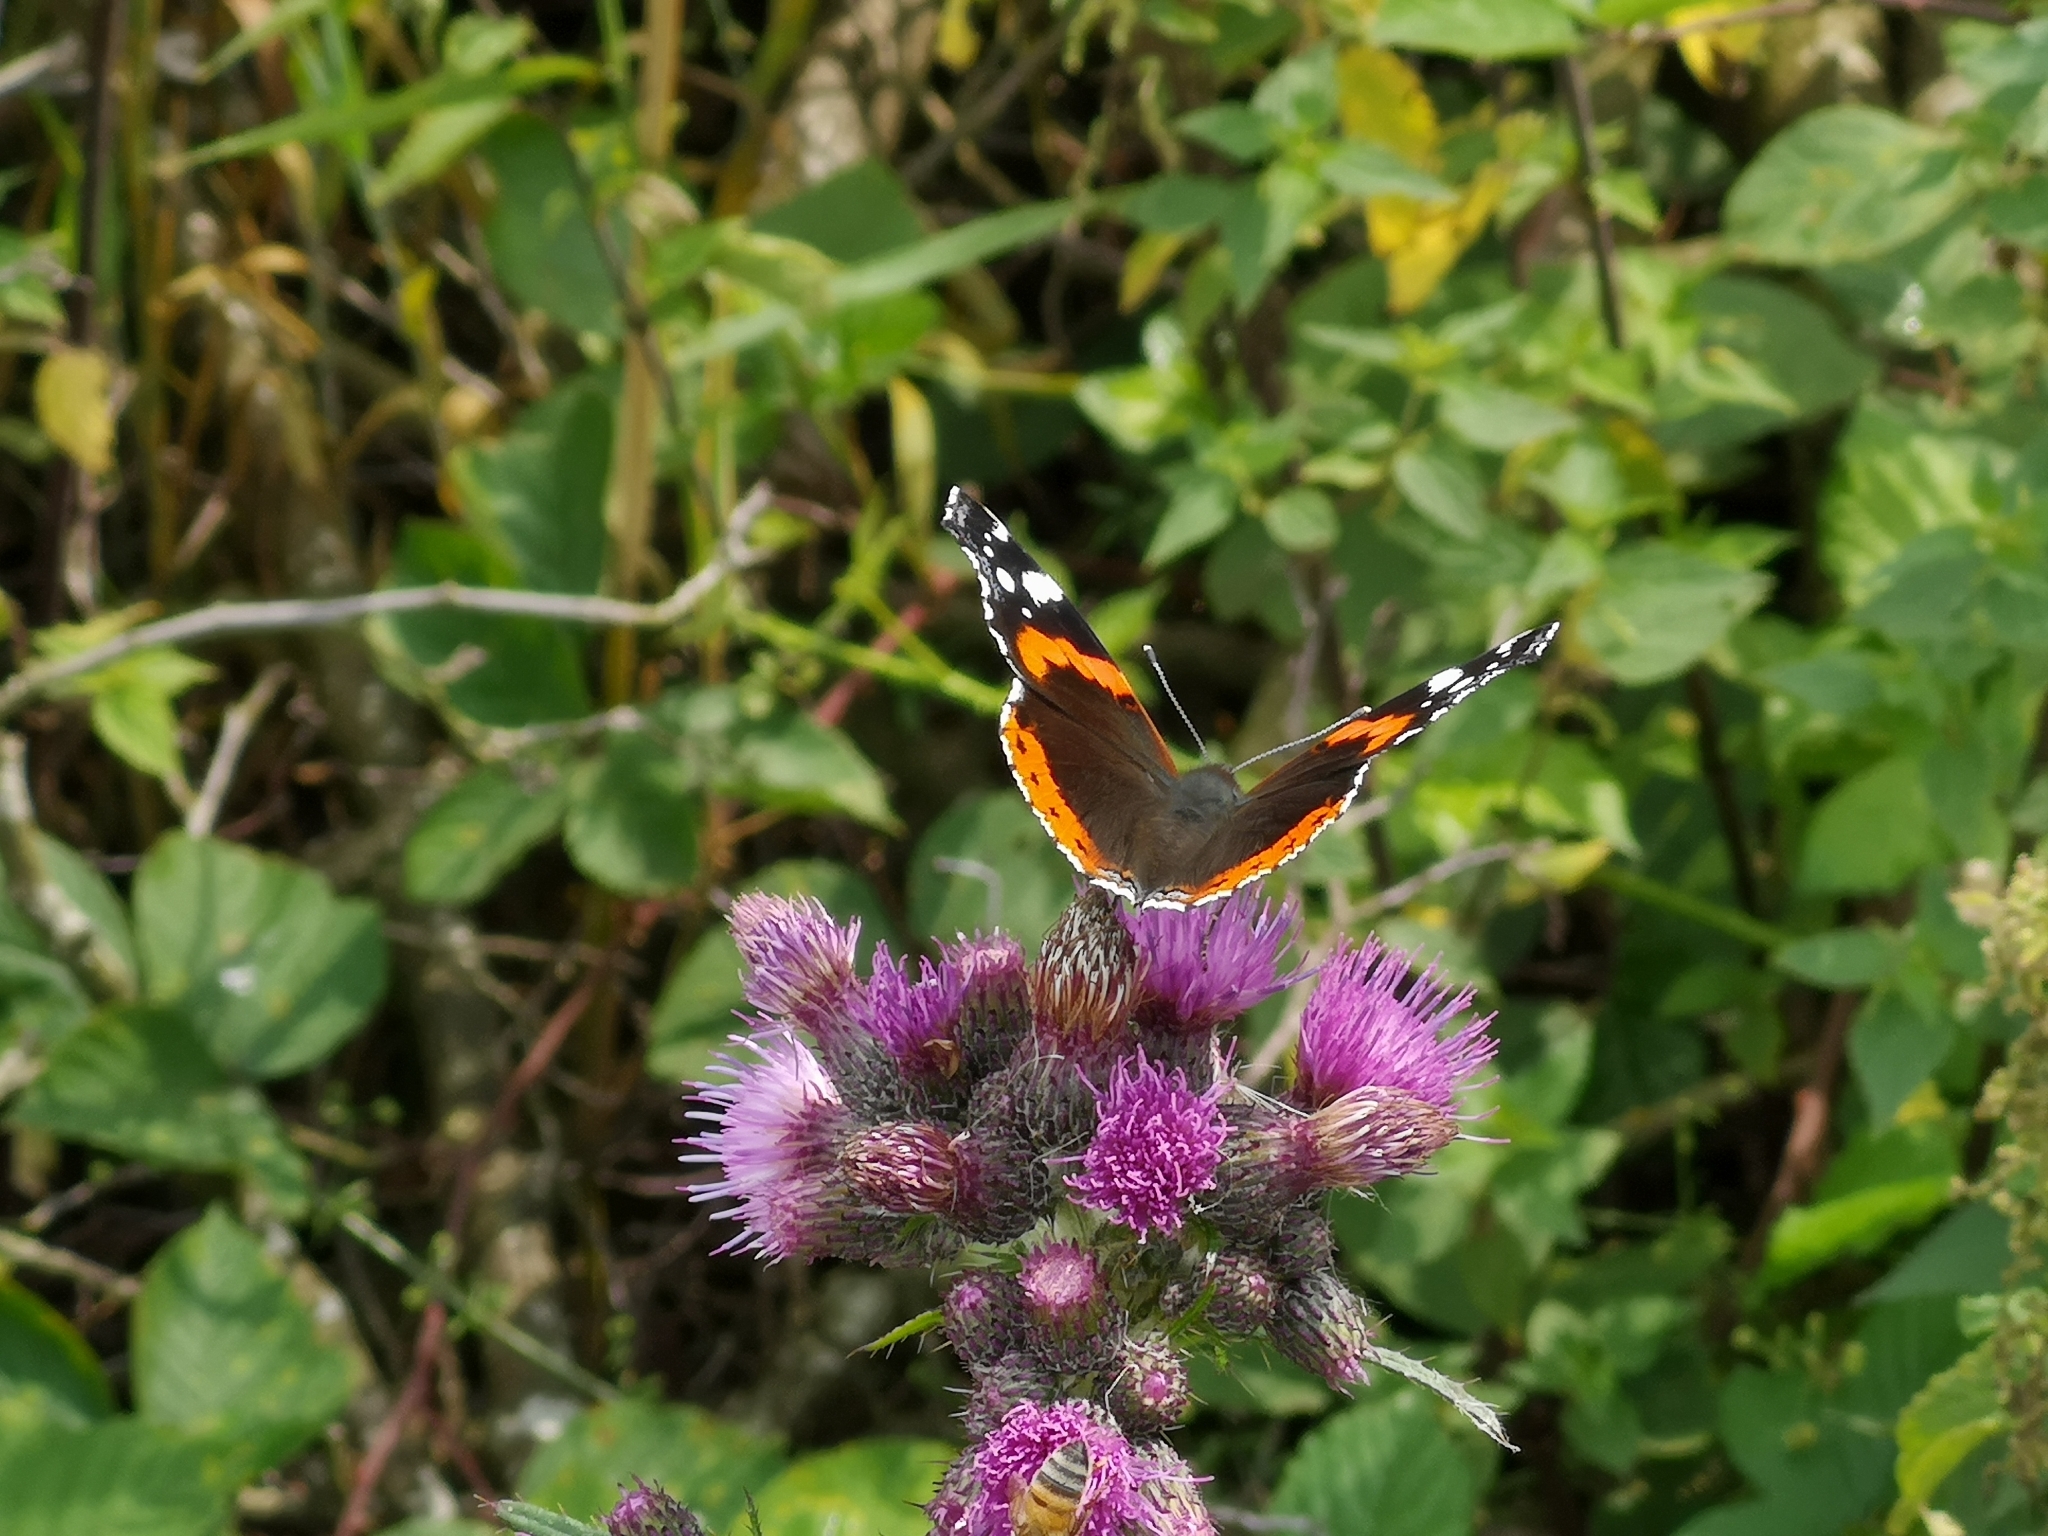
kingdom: Animalia
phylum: Arthropoda
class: Insecta
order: Lepidoptera
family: Nymphalidae
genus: Vanessa
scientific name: Vanessa atalanta
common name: Red admiral
